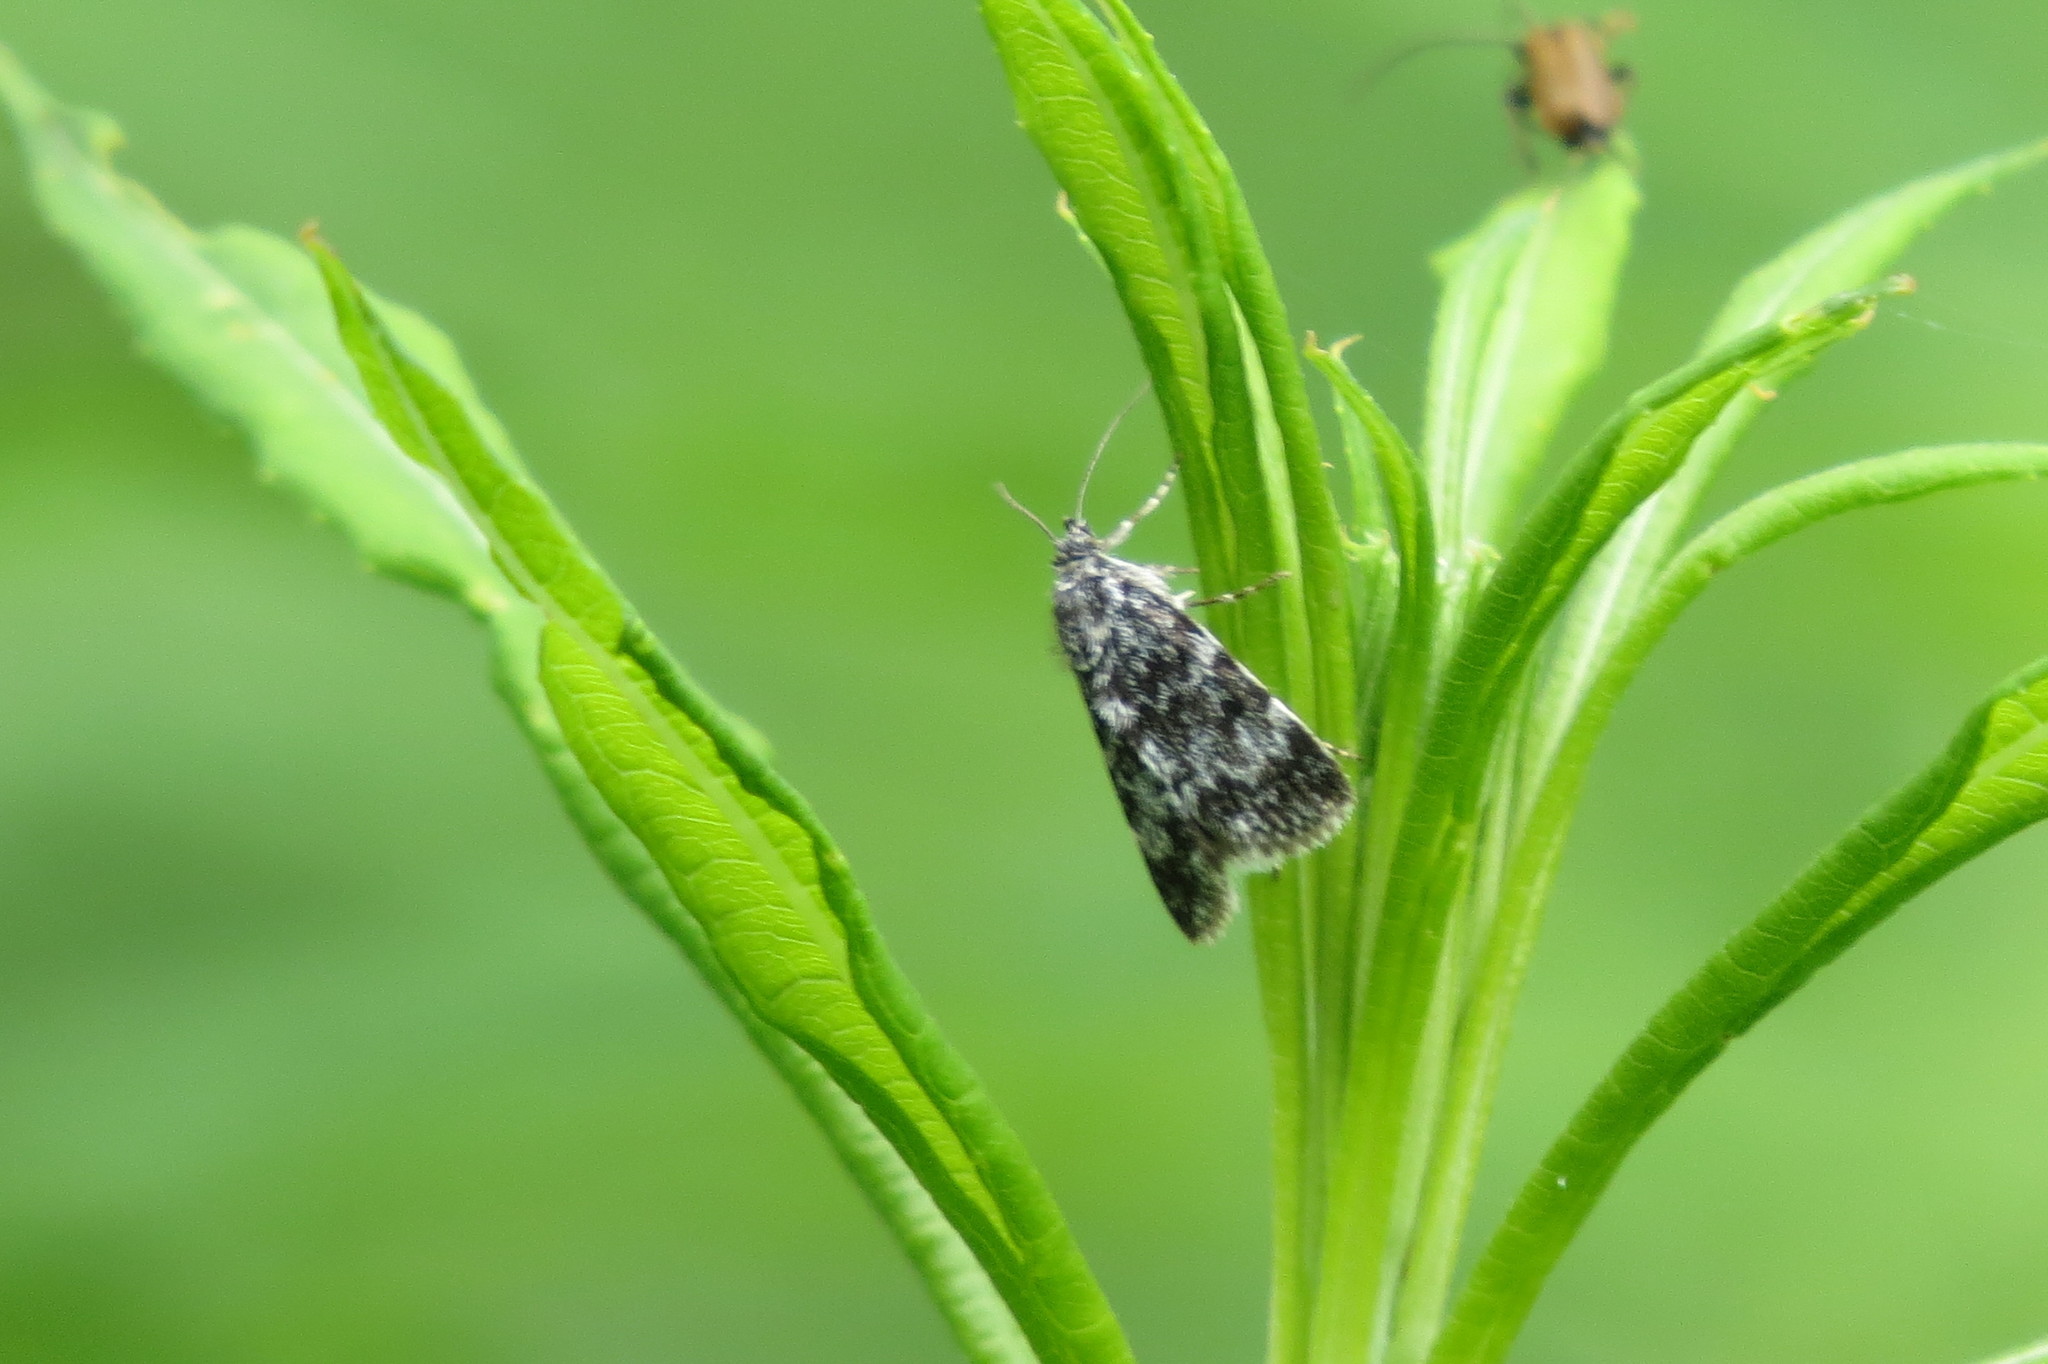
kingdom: Animalia
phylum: Arthropoda
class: Insecta
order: Lepidoptera
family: Crambidae
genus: Orenaia
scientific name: Orenaia alpestralis
